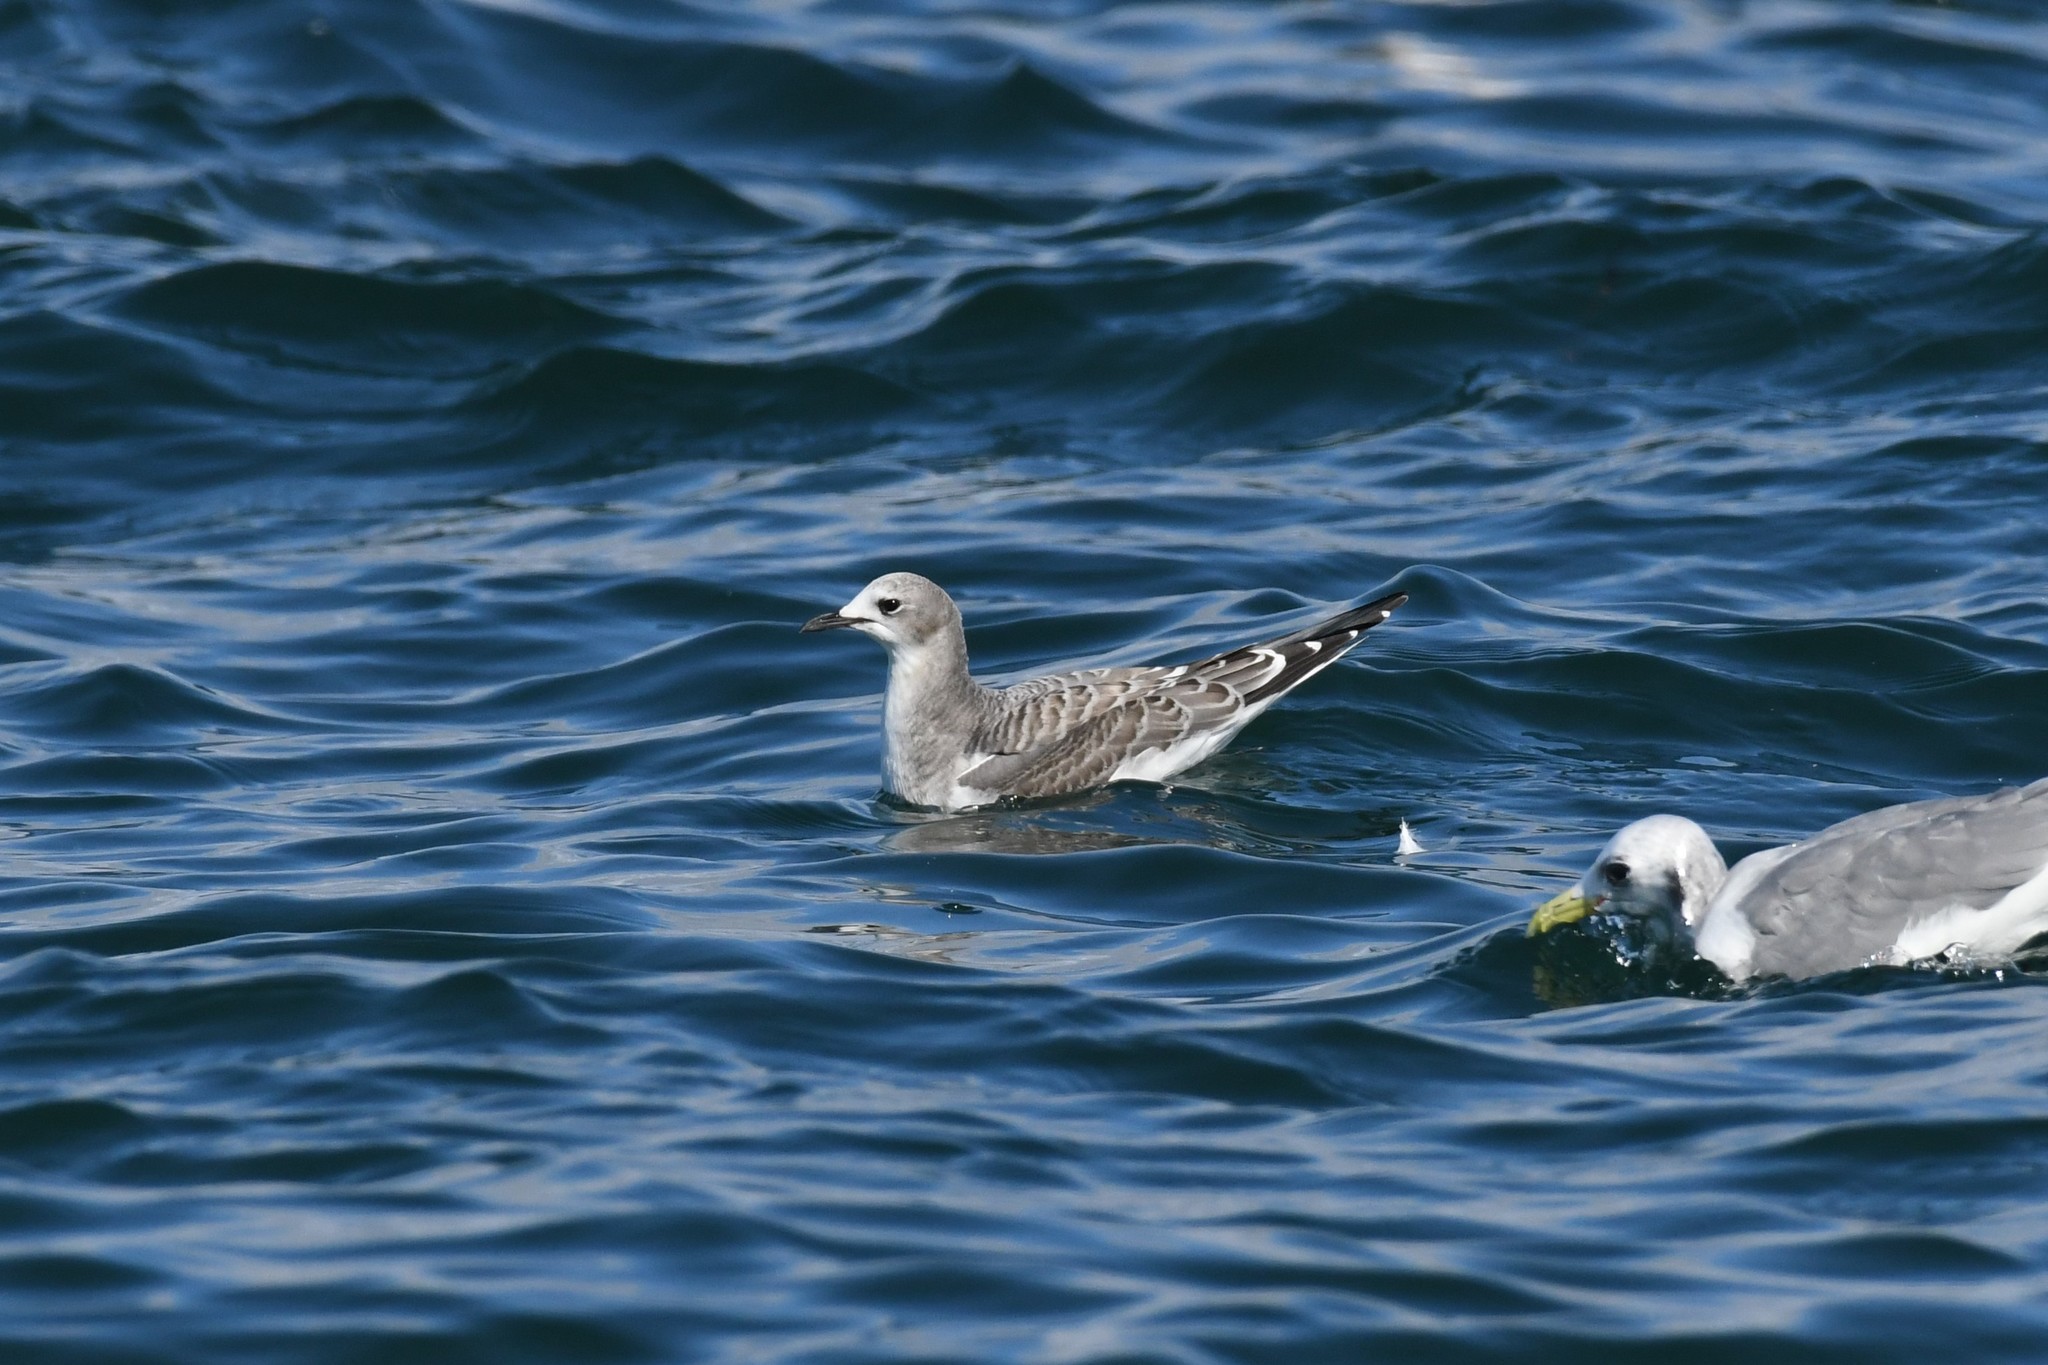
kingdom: Animalia
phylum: Chordata
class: Aves
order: Charadriiformes
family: Laridae
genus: Xema
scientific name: Xema sabini
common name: Sabine's gull
